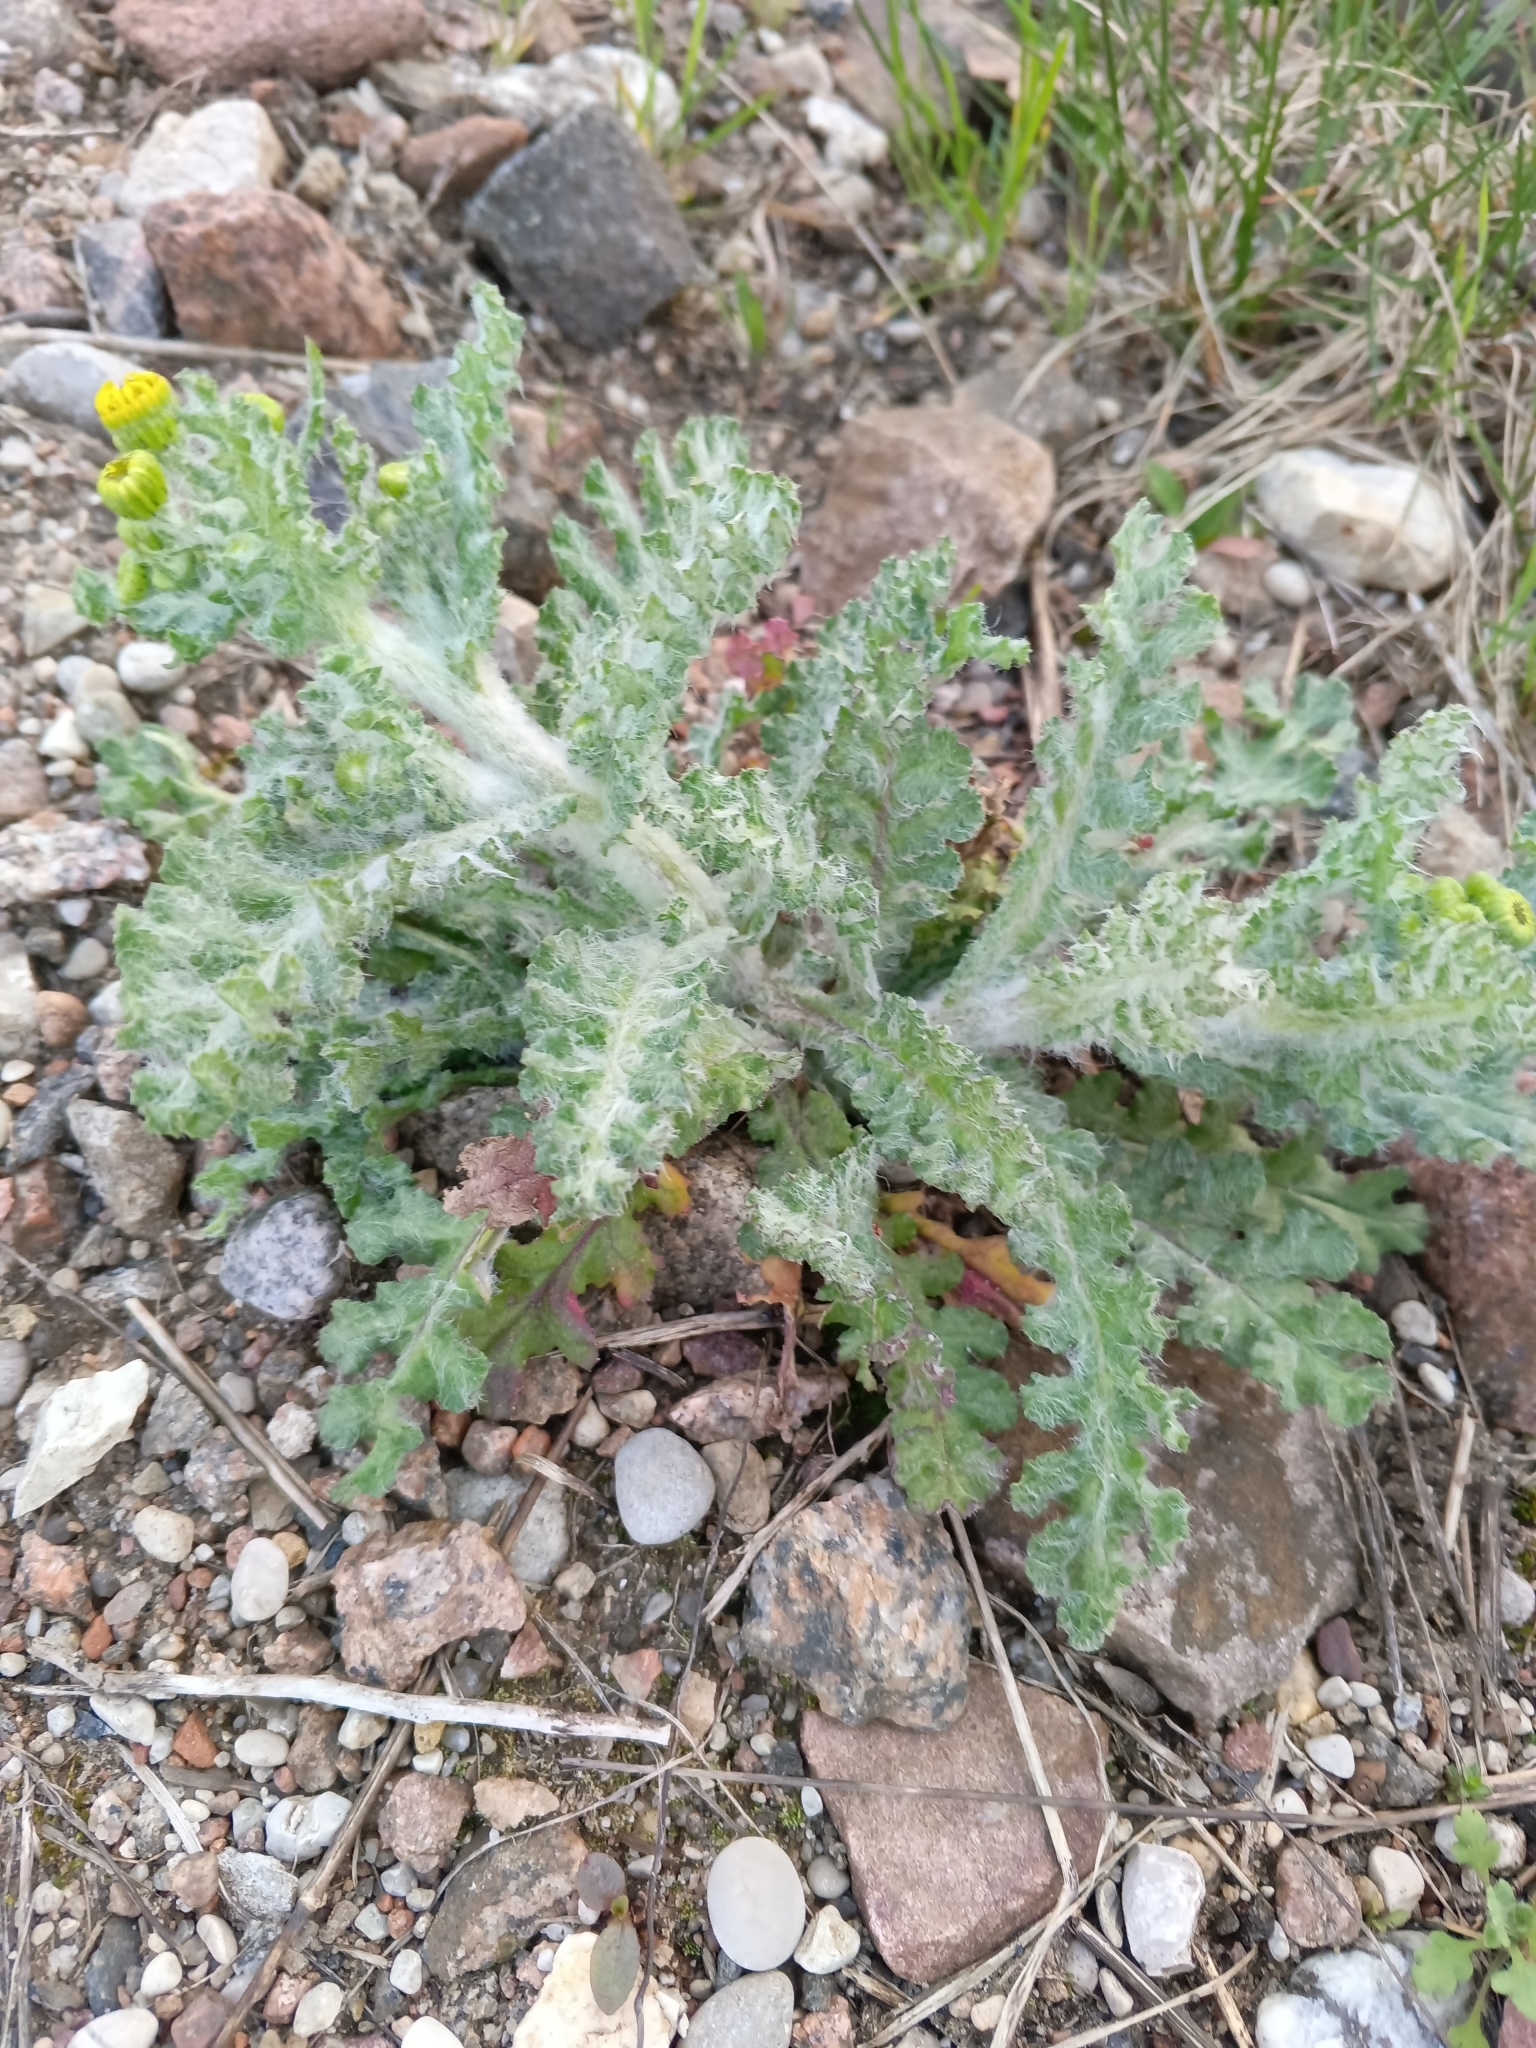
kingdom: Plantae
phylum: Tracheophyta
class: Magnoliopsida
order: Asterales
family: Asteraceae
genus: Senecio
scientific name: Senecio vernalis
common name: Eastern groundsel
